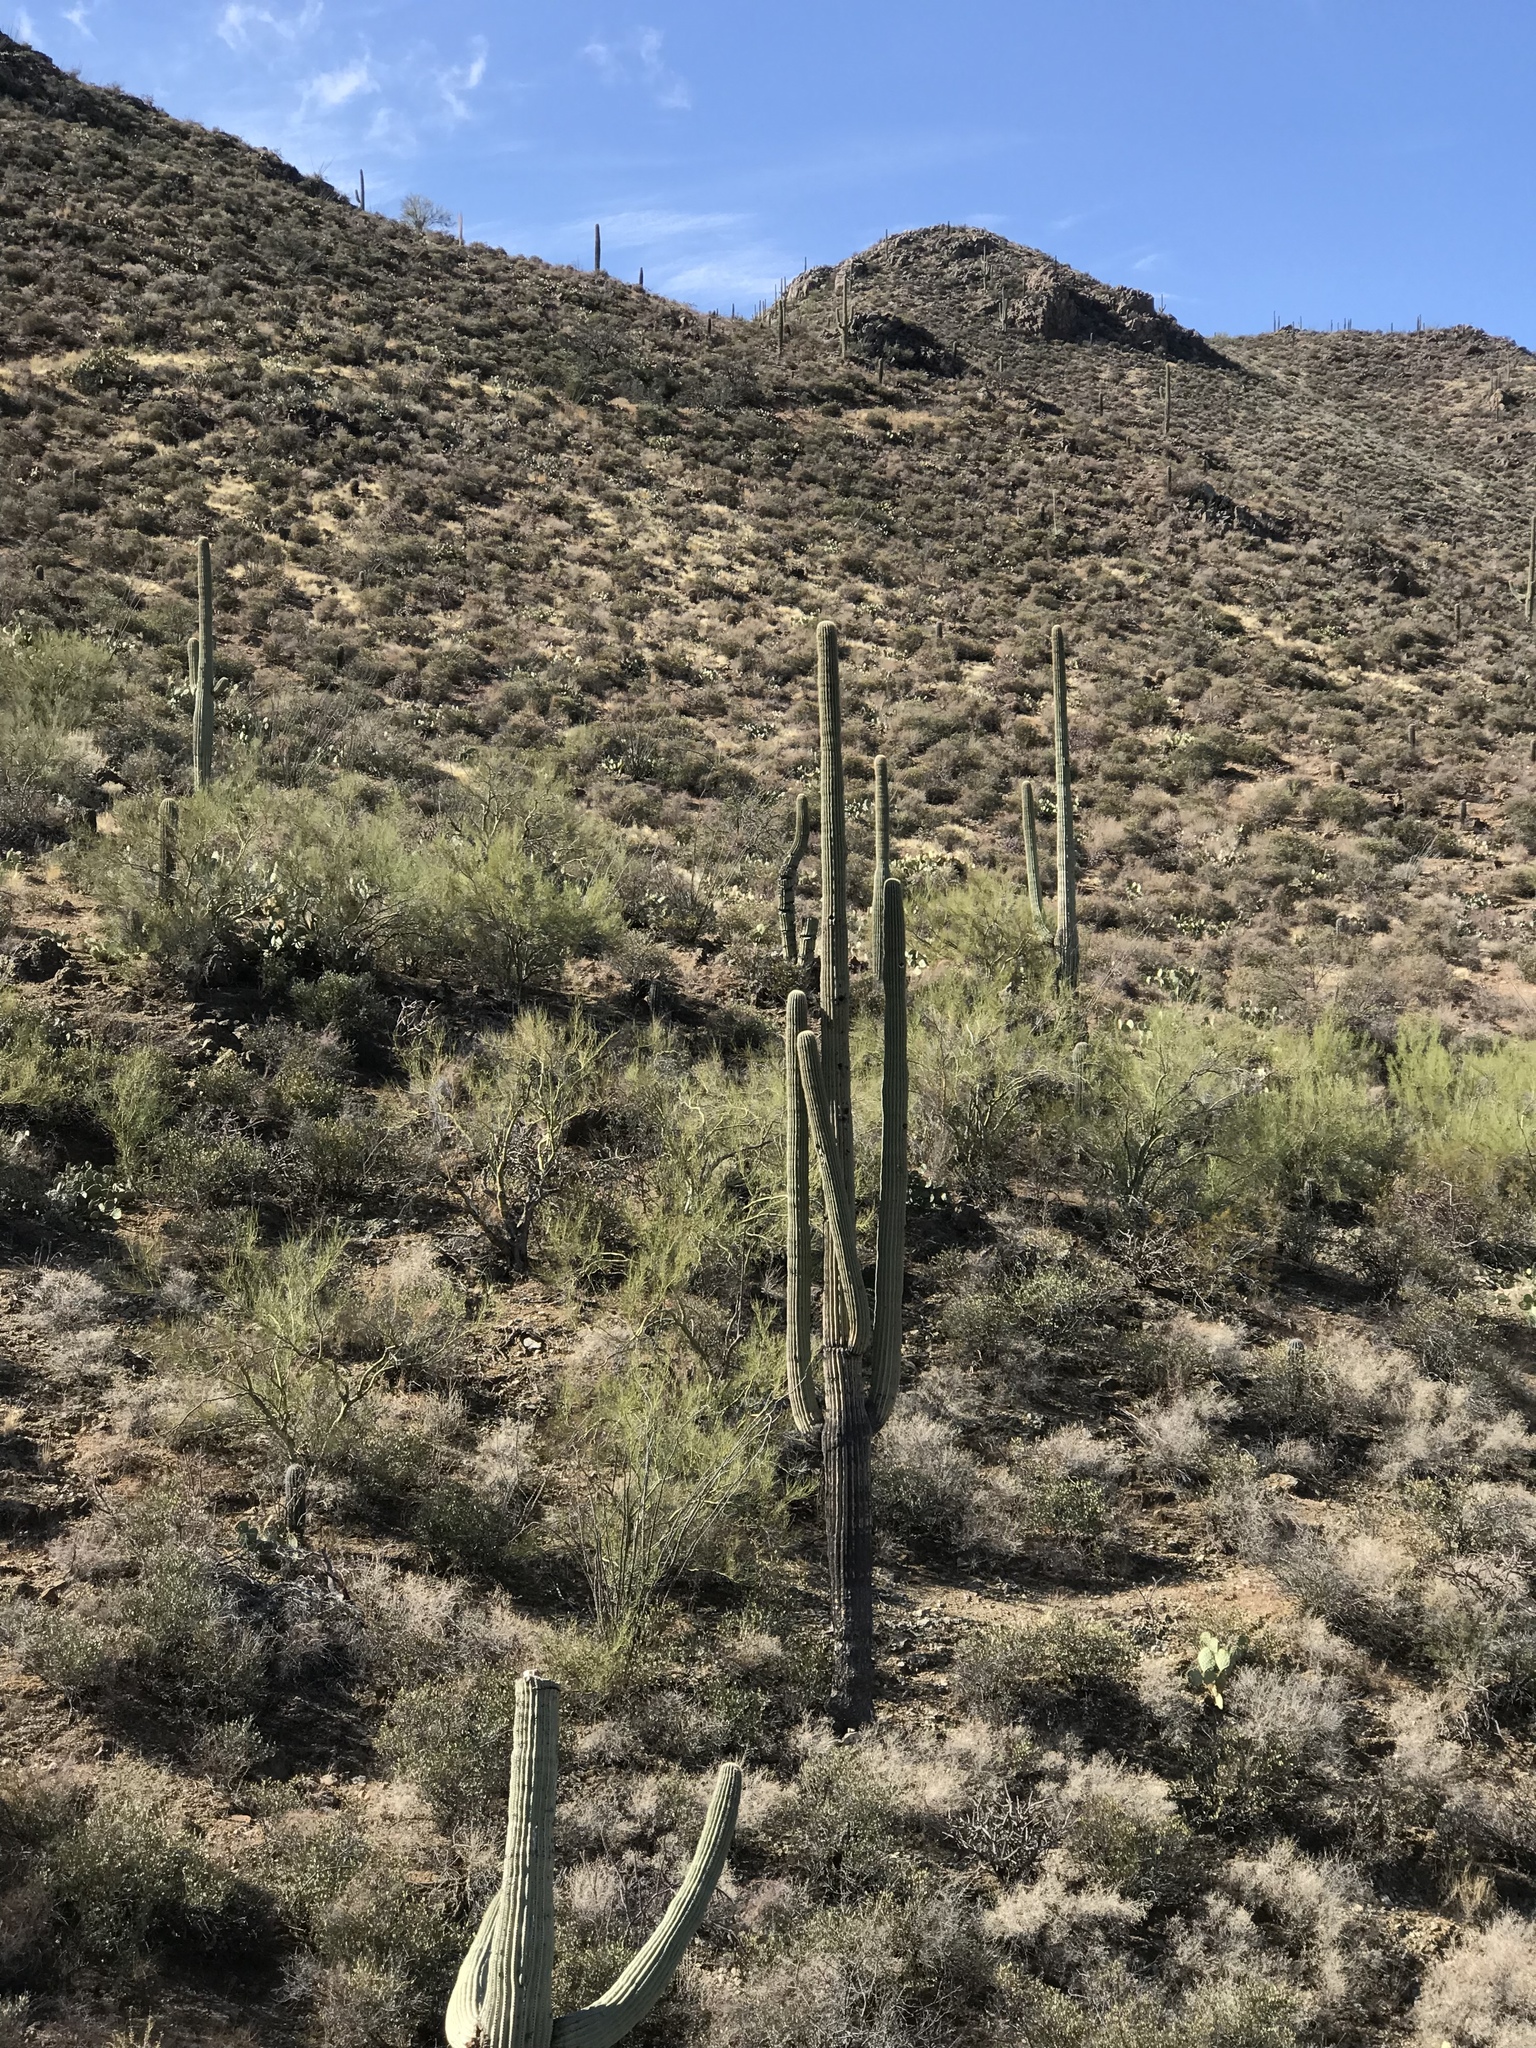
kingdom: Plantae
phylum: Tracheophyta
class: Magnoliopsida
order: Caryophyllales
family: Cactaceae
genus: Carnegiea
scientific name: Carnegiea gigantea
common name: Saguaro
